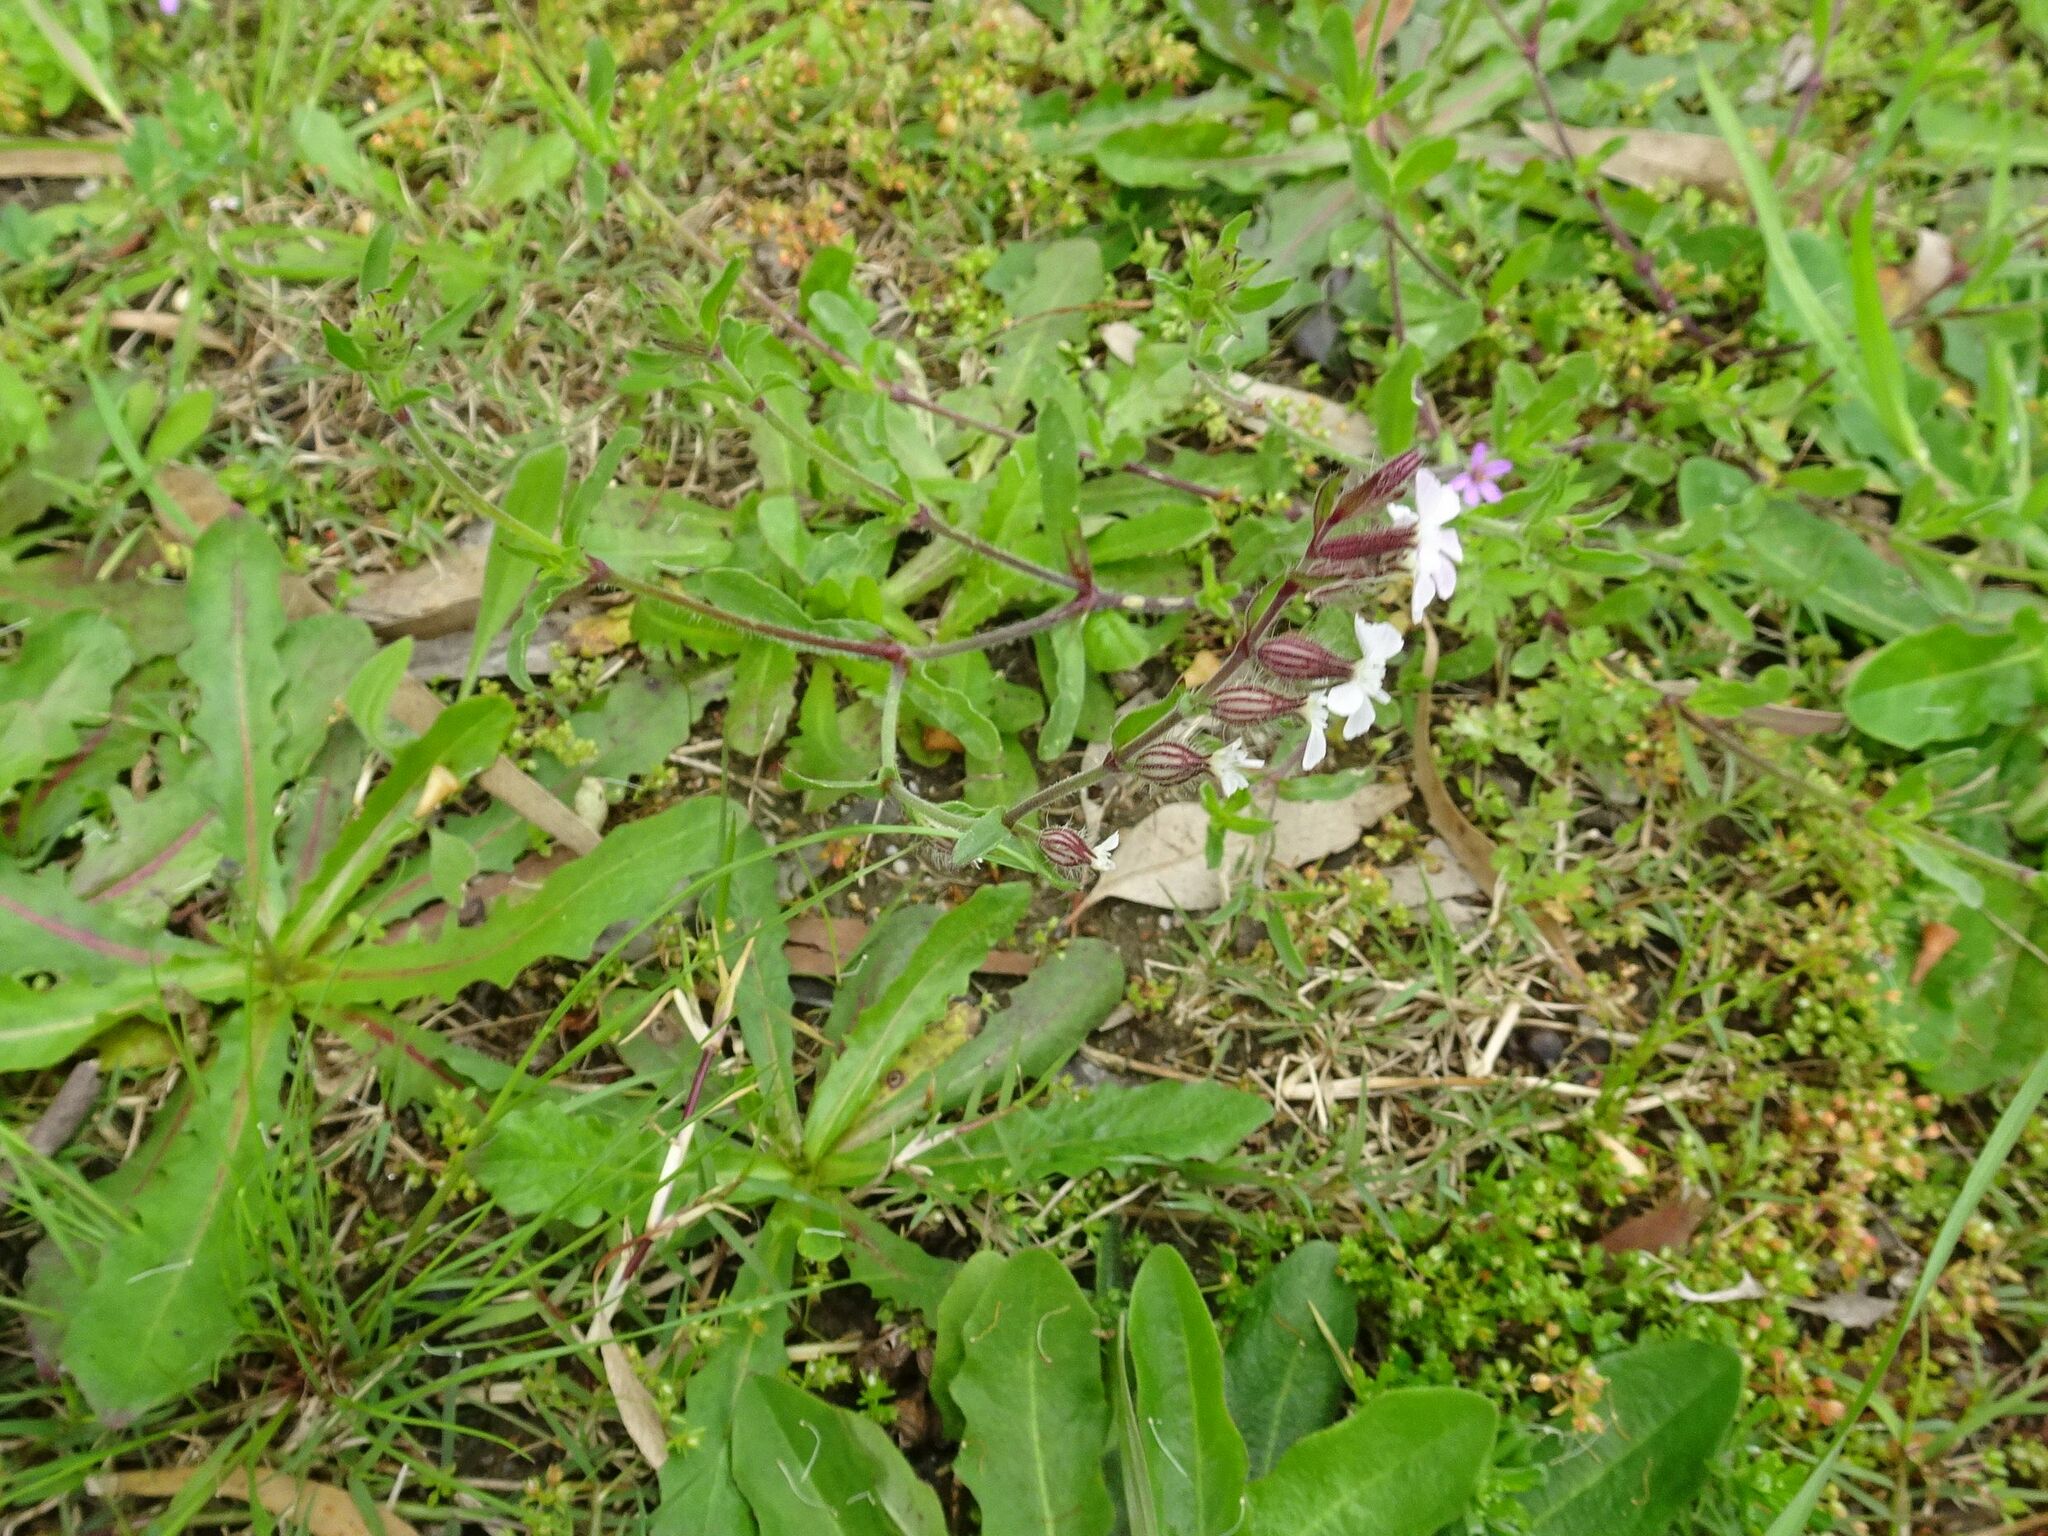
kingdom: Plantae
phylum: Tracheophyta
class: Magnoliopsida
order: Caryophyllales
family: Caryophyllaceae
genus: Silene
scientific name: Silene gallica
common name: Small-flowered catchfly
